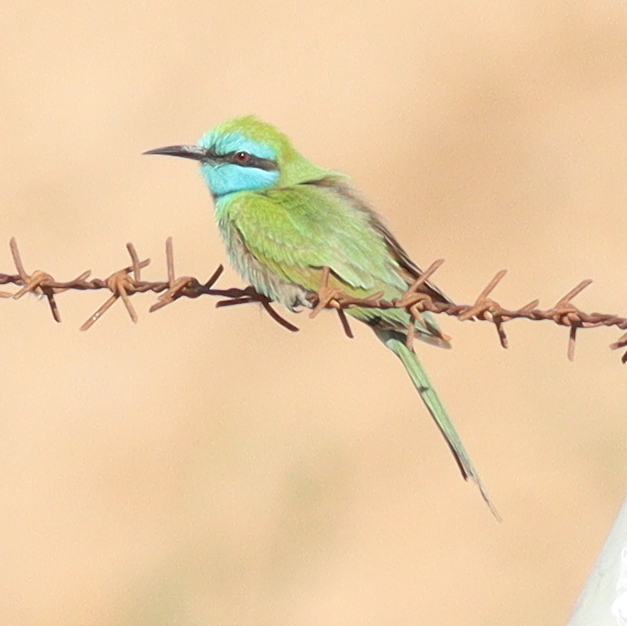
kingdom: Animalia
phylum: Chordata
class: Aves
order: Coraciiformes
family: Meropidae
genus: Merops
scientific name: Merops cyanophrys
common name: Arabian green bee-eater
